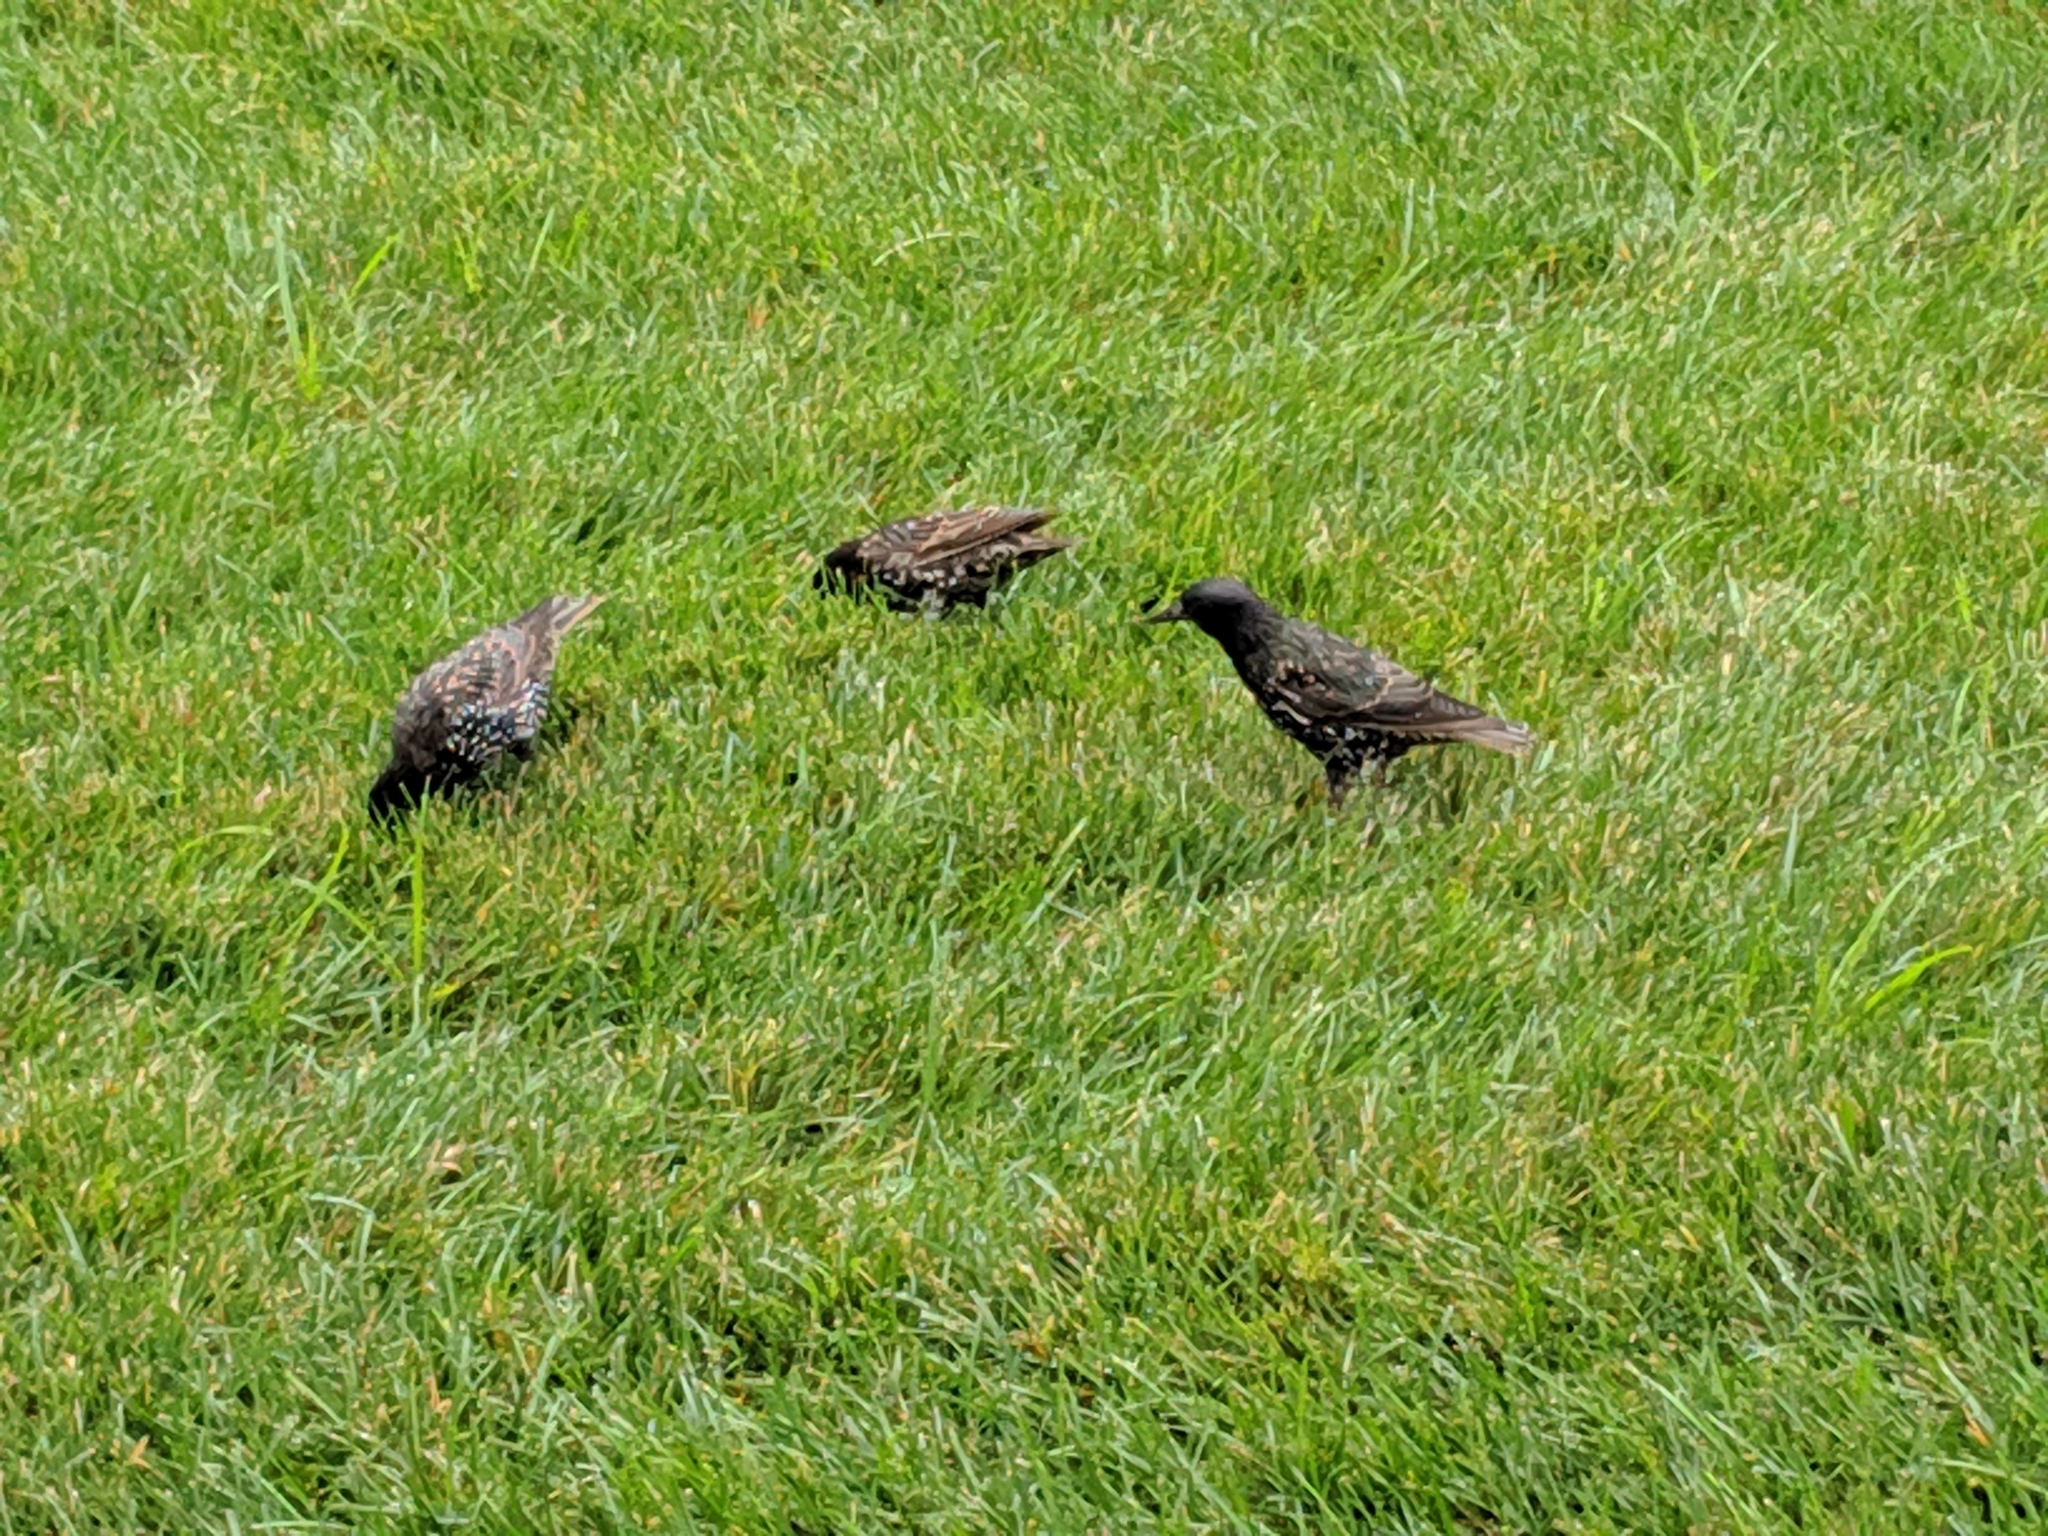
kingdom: Animalia
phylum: Chordata
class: Aves
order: Passeriformes
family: Sturnidae
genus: Sturnus
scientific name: Sturnus vulgaris
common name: Common starling
